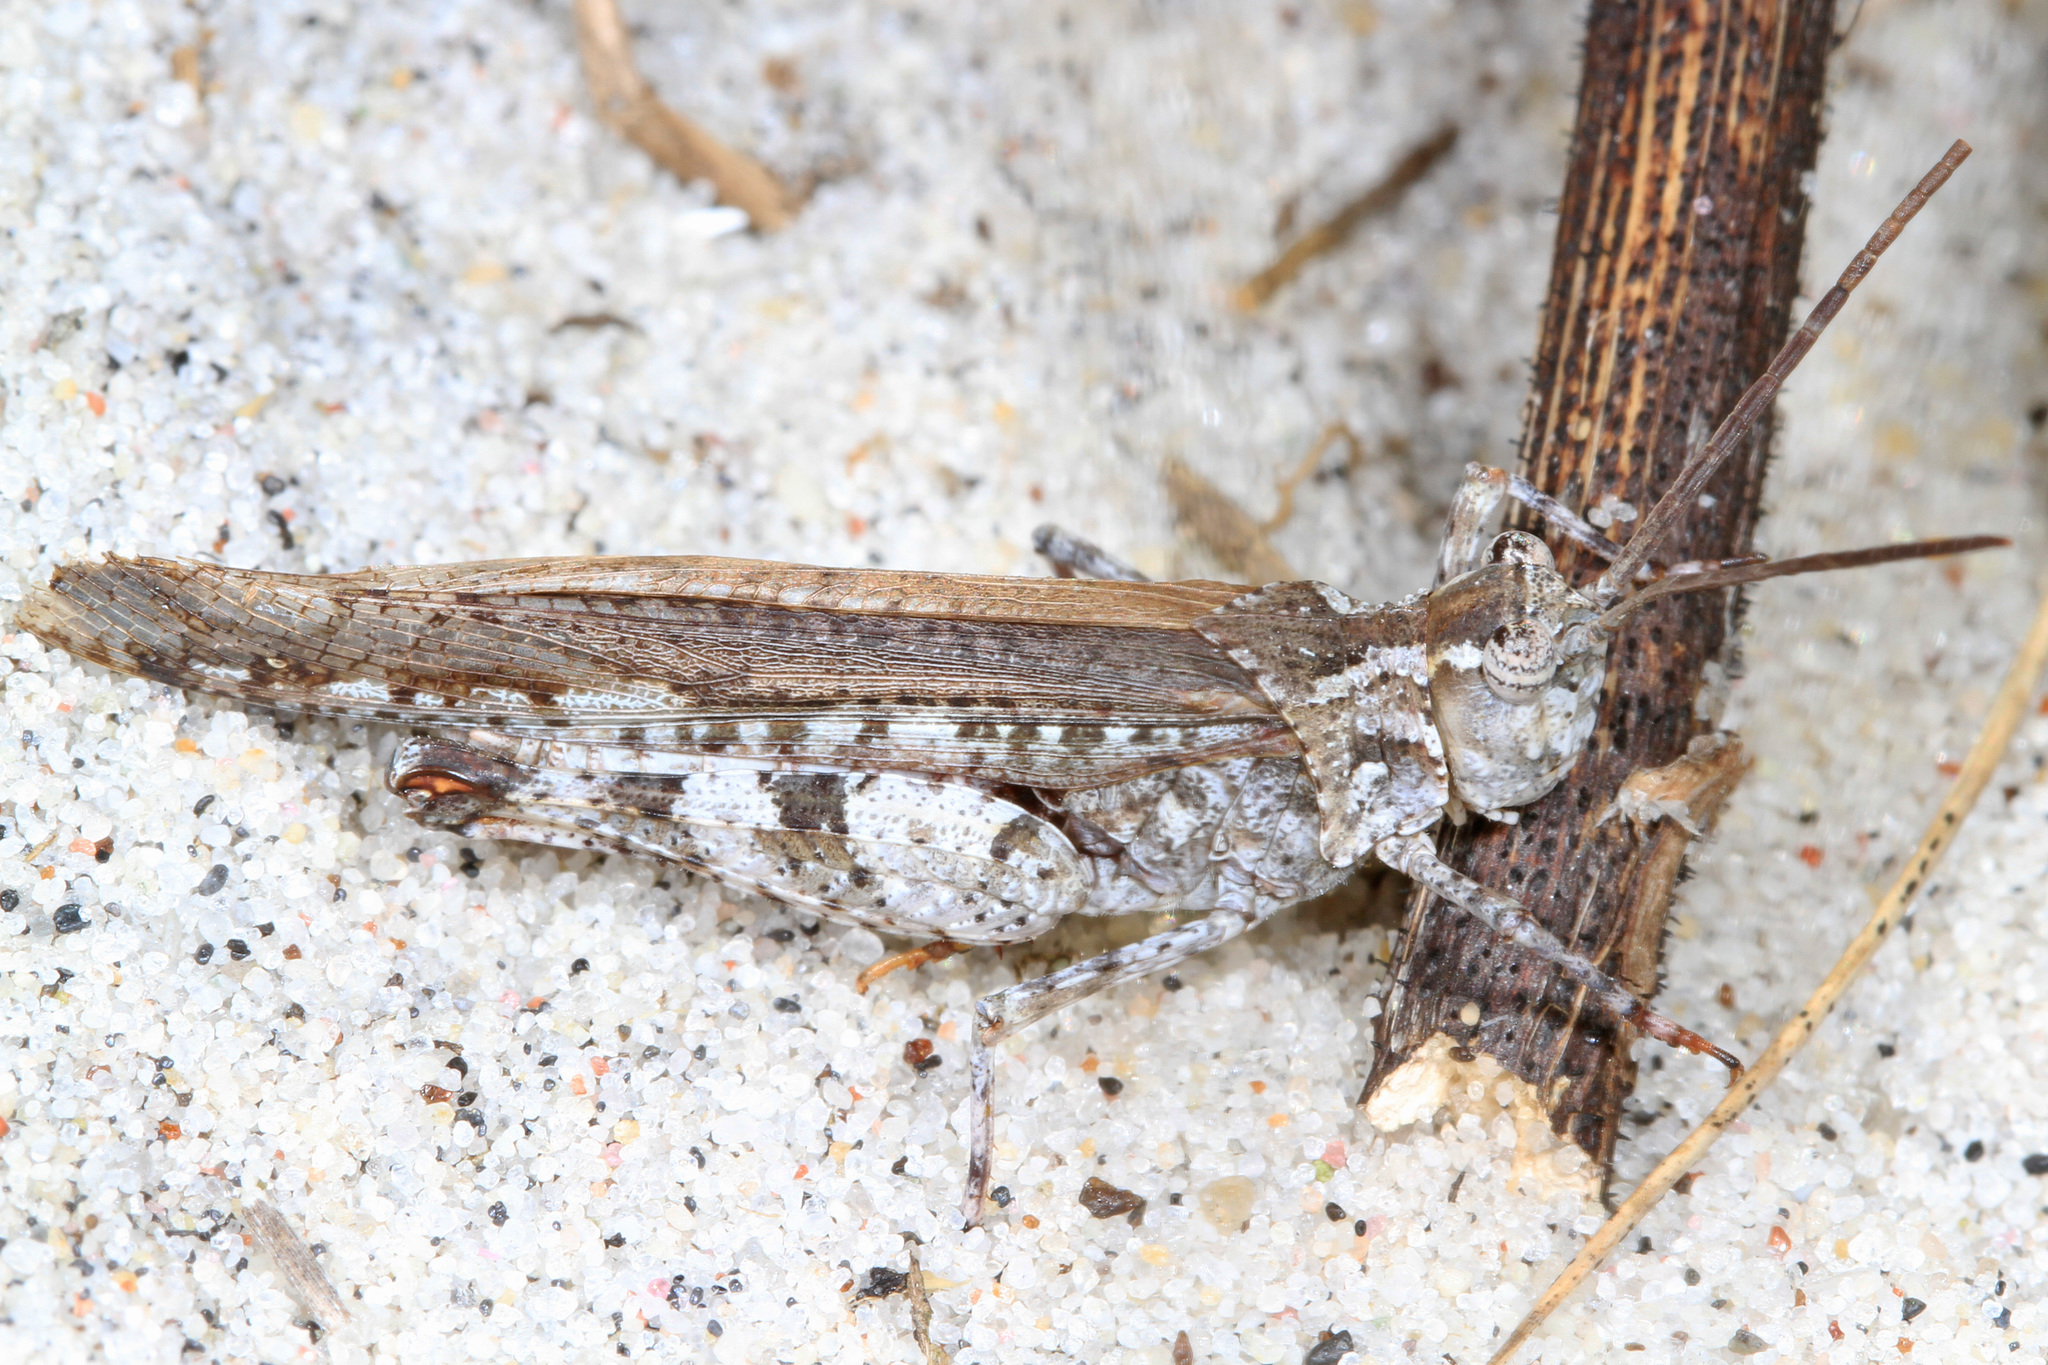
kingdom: Animalia
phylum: Arthropoda
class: Insecta
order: Orthoptera
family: Acrididae
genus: Psinidia
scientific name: Psinidia fenestralis
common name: Long-horned locust
